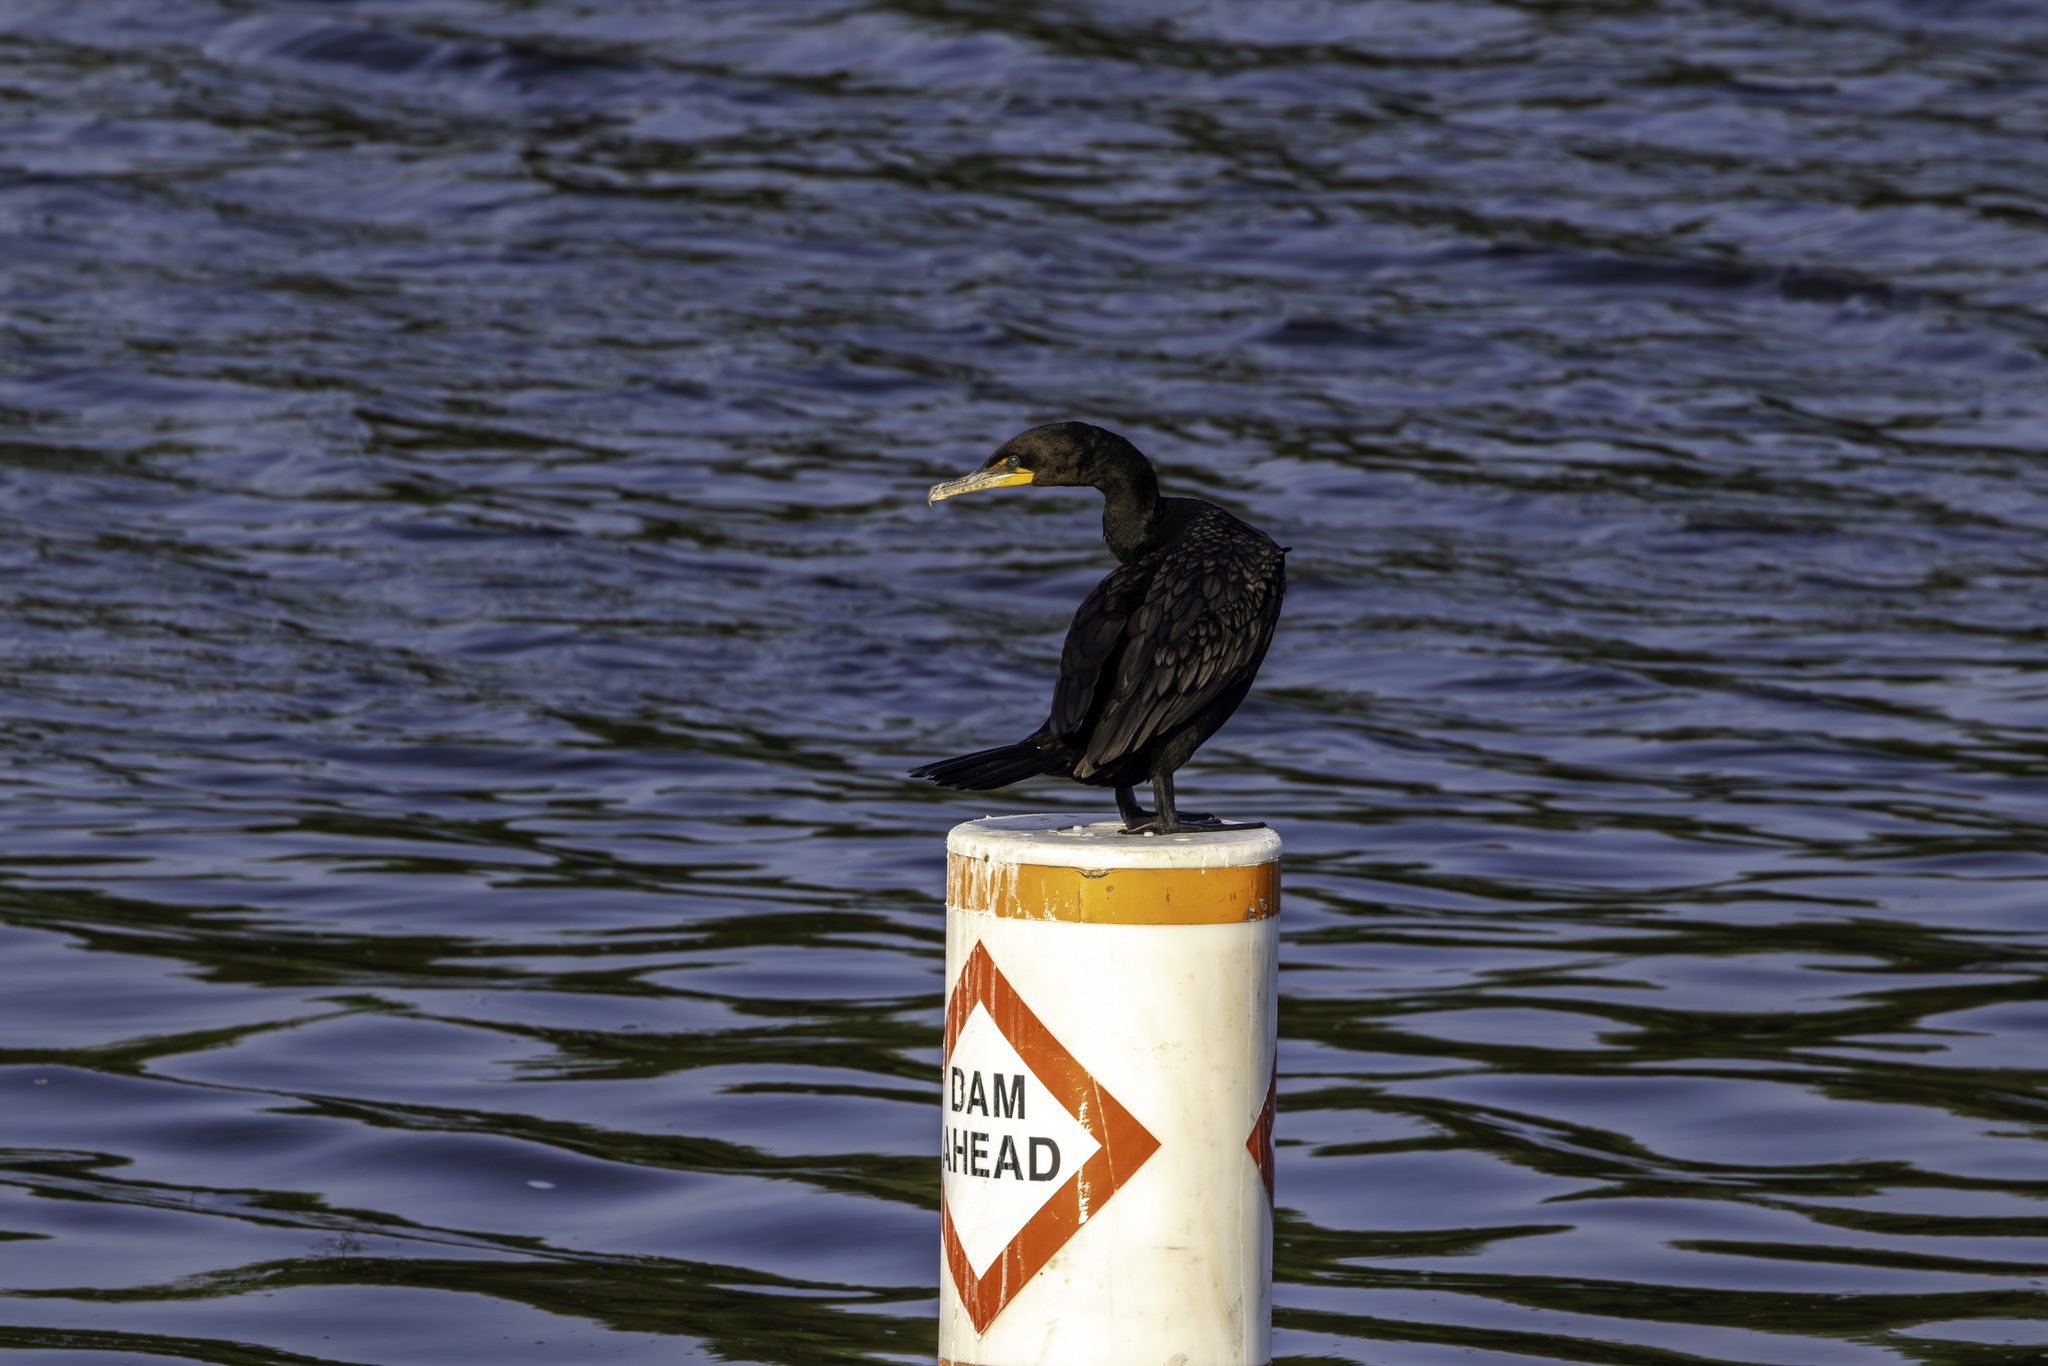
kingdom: Animalia
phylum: Chordata
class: Aves
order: Suliformes
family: Phalacrocoracidae
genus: Phalacrocorax
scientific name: Phalacrocorax auritus
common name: Double-crested cormorant
